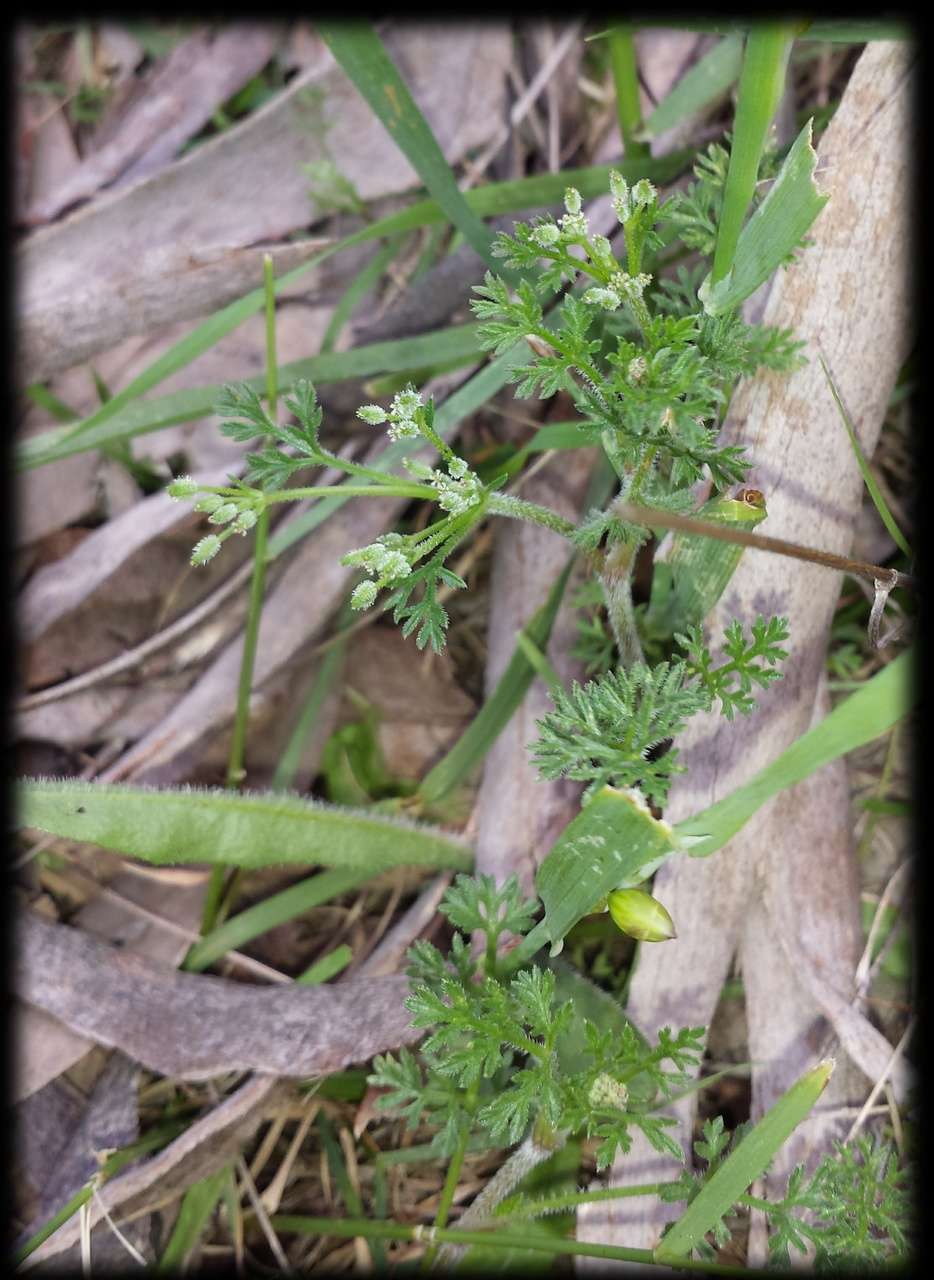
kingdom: Plantae
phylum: Tracheophyta
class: Magnoliopsida
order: Apiales
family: Apiaceae
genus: Daucus
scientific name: Daucus glochidiatus
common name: Australian carrot
